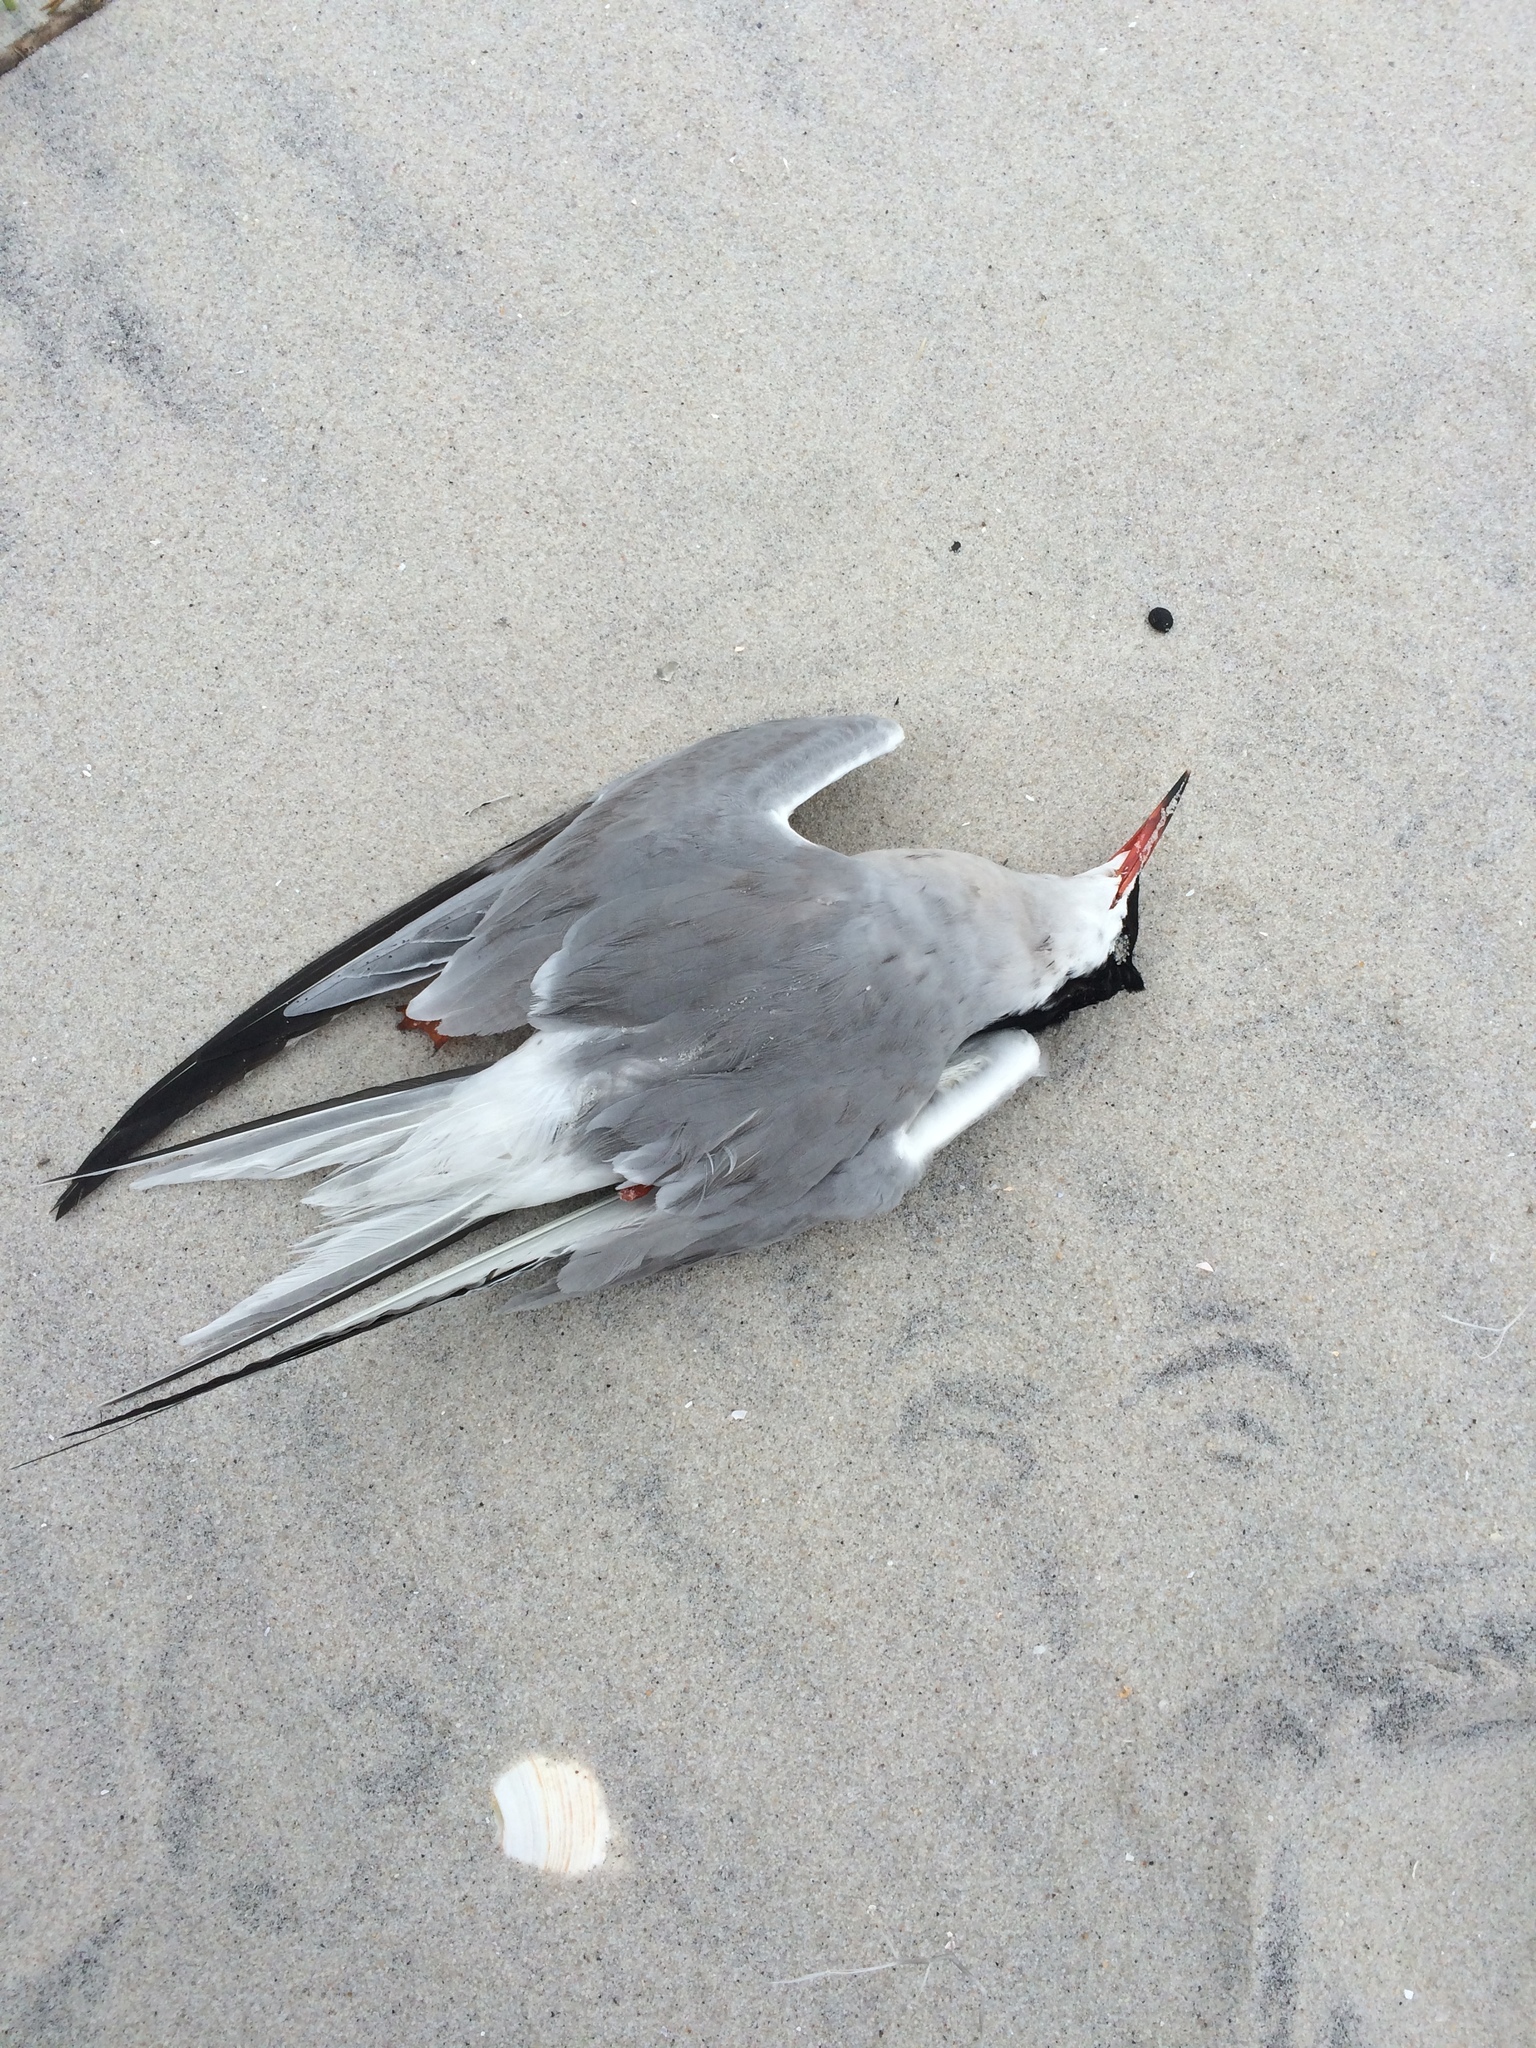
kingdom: Animalia
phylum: Chordata
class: Aves
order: Charadriiformes
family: Laridae
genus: Sterna
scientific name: Sterna hirundo
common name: Common tern
